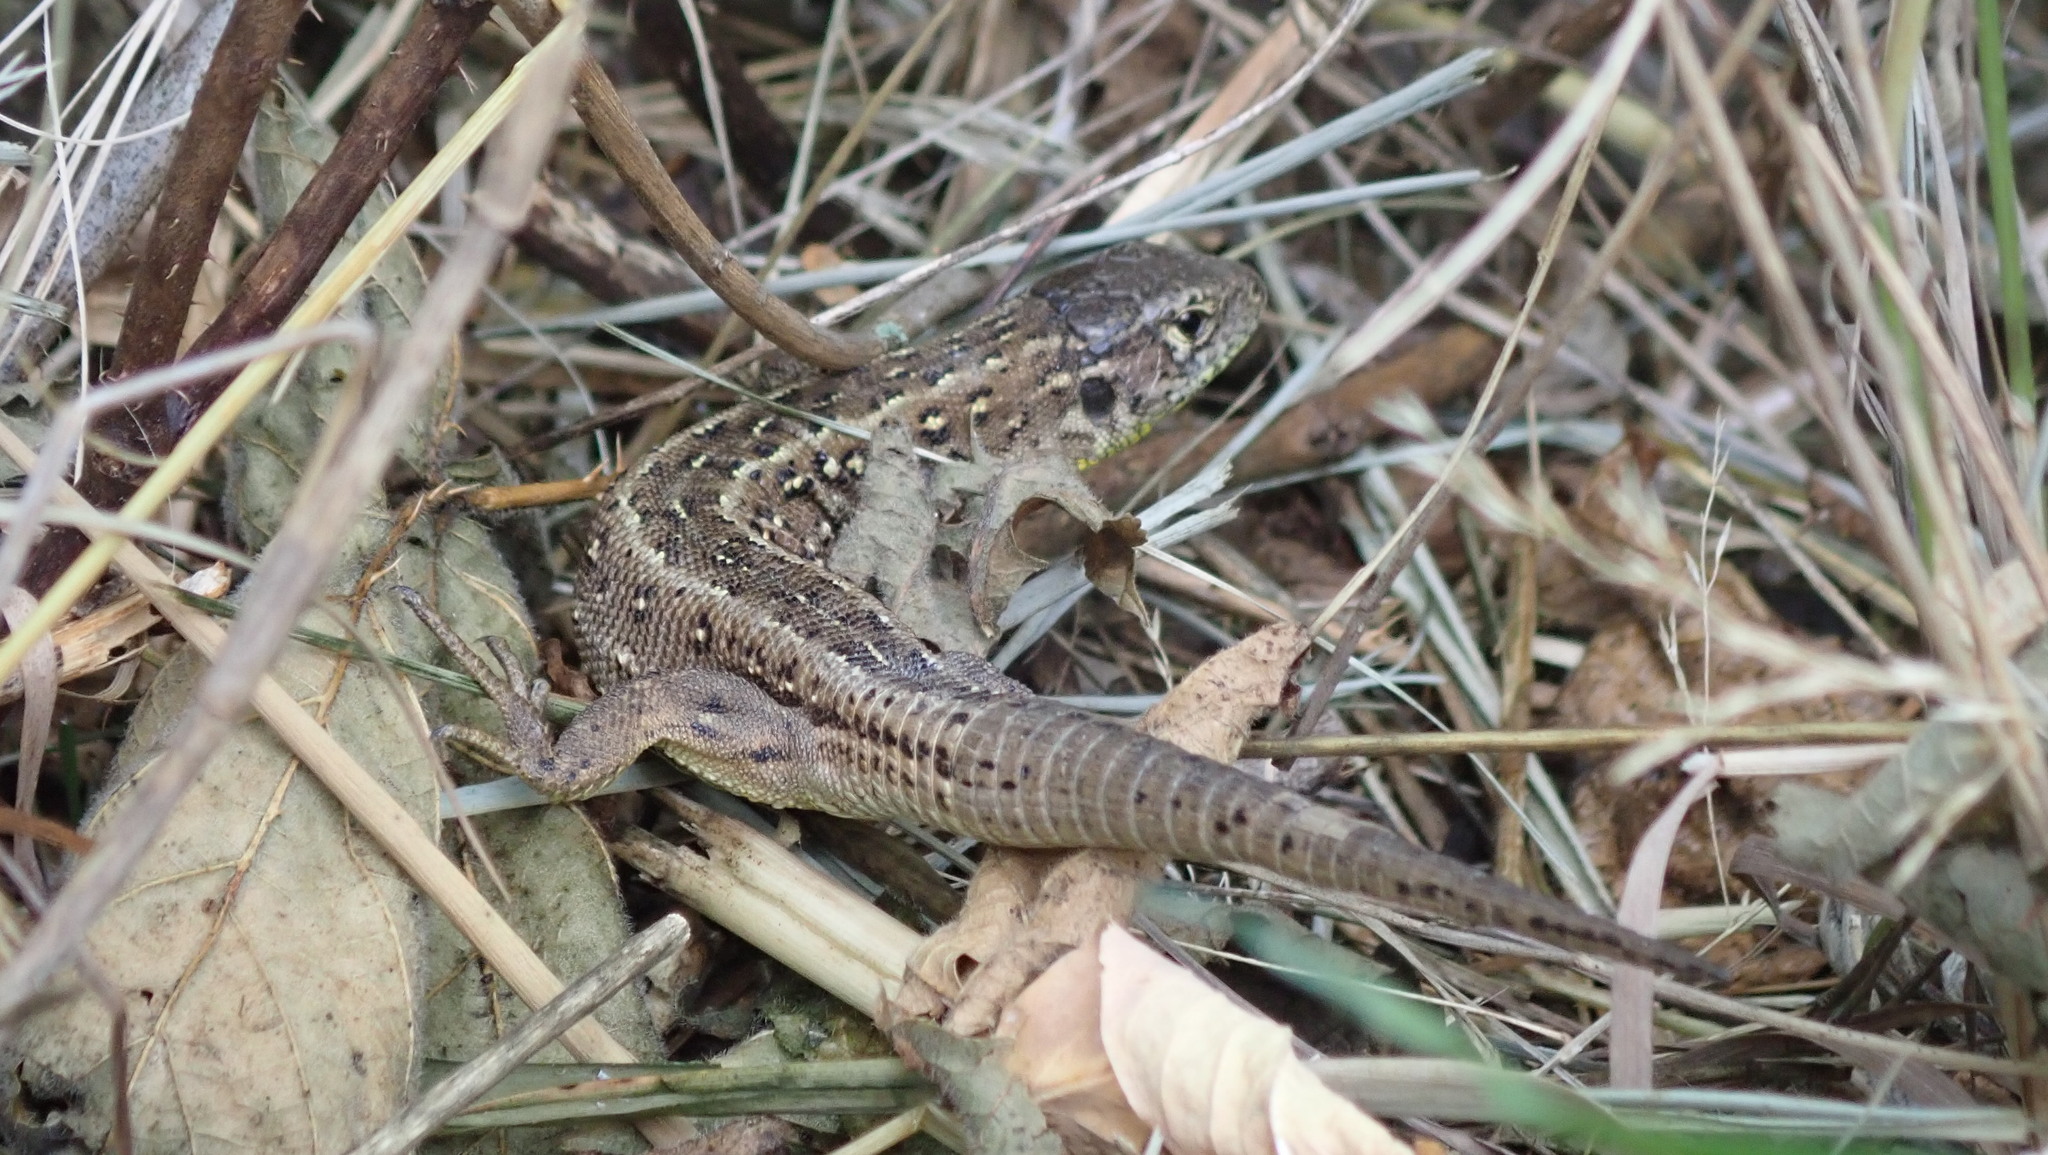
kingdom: Animalia
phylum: Chordata
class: Squamata
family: Lacertidae
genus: Lacerta
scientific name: Lacerta agilis
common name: Sand lizard
